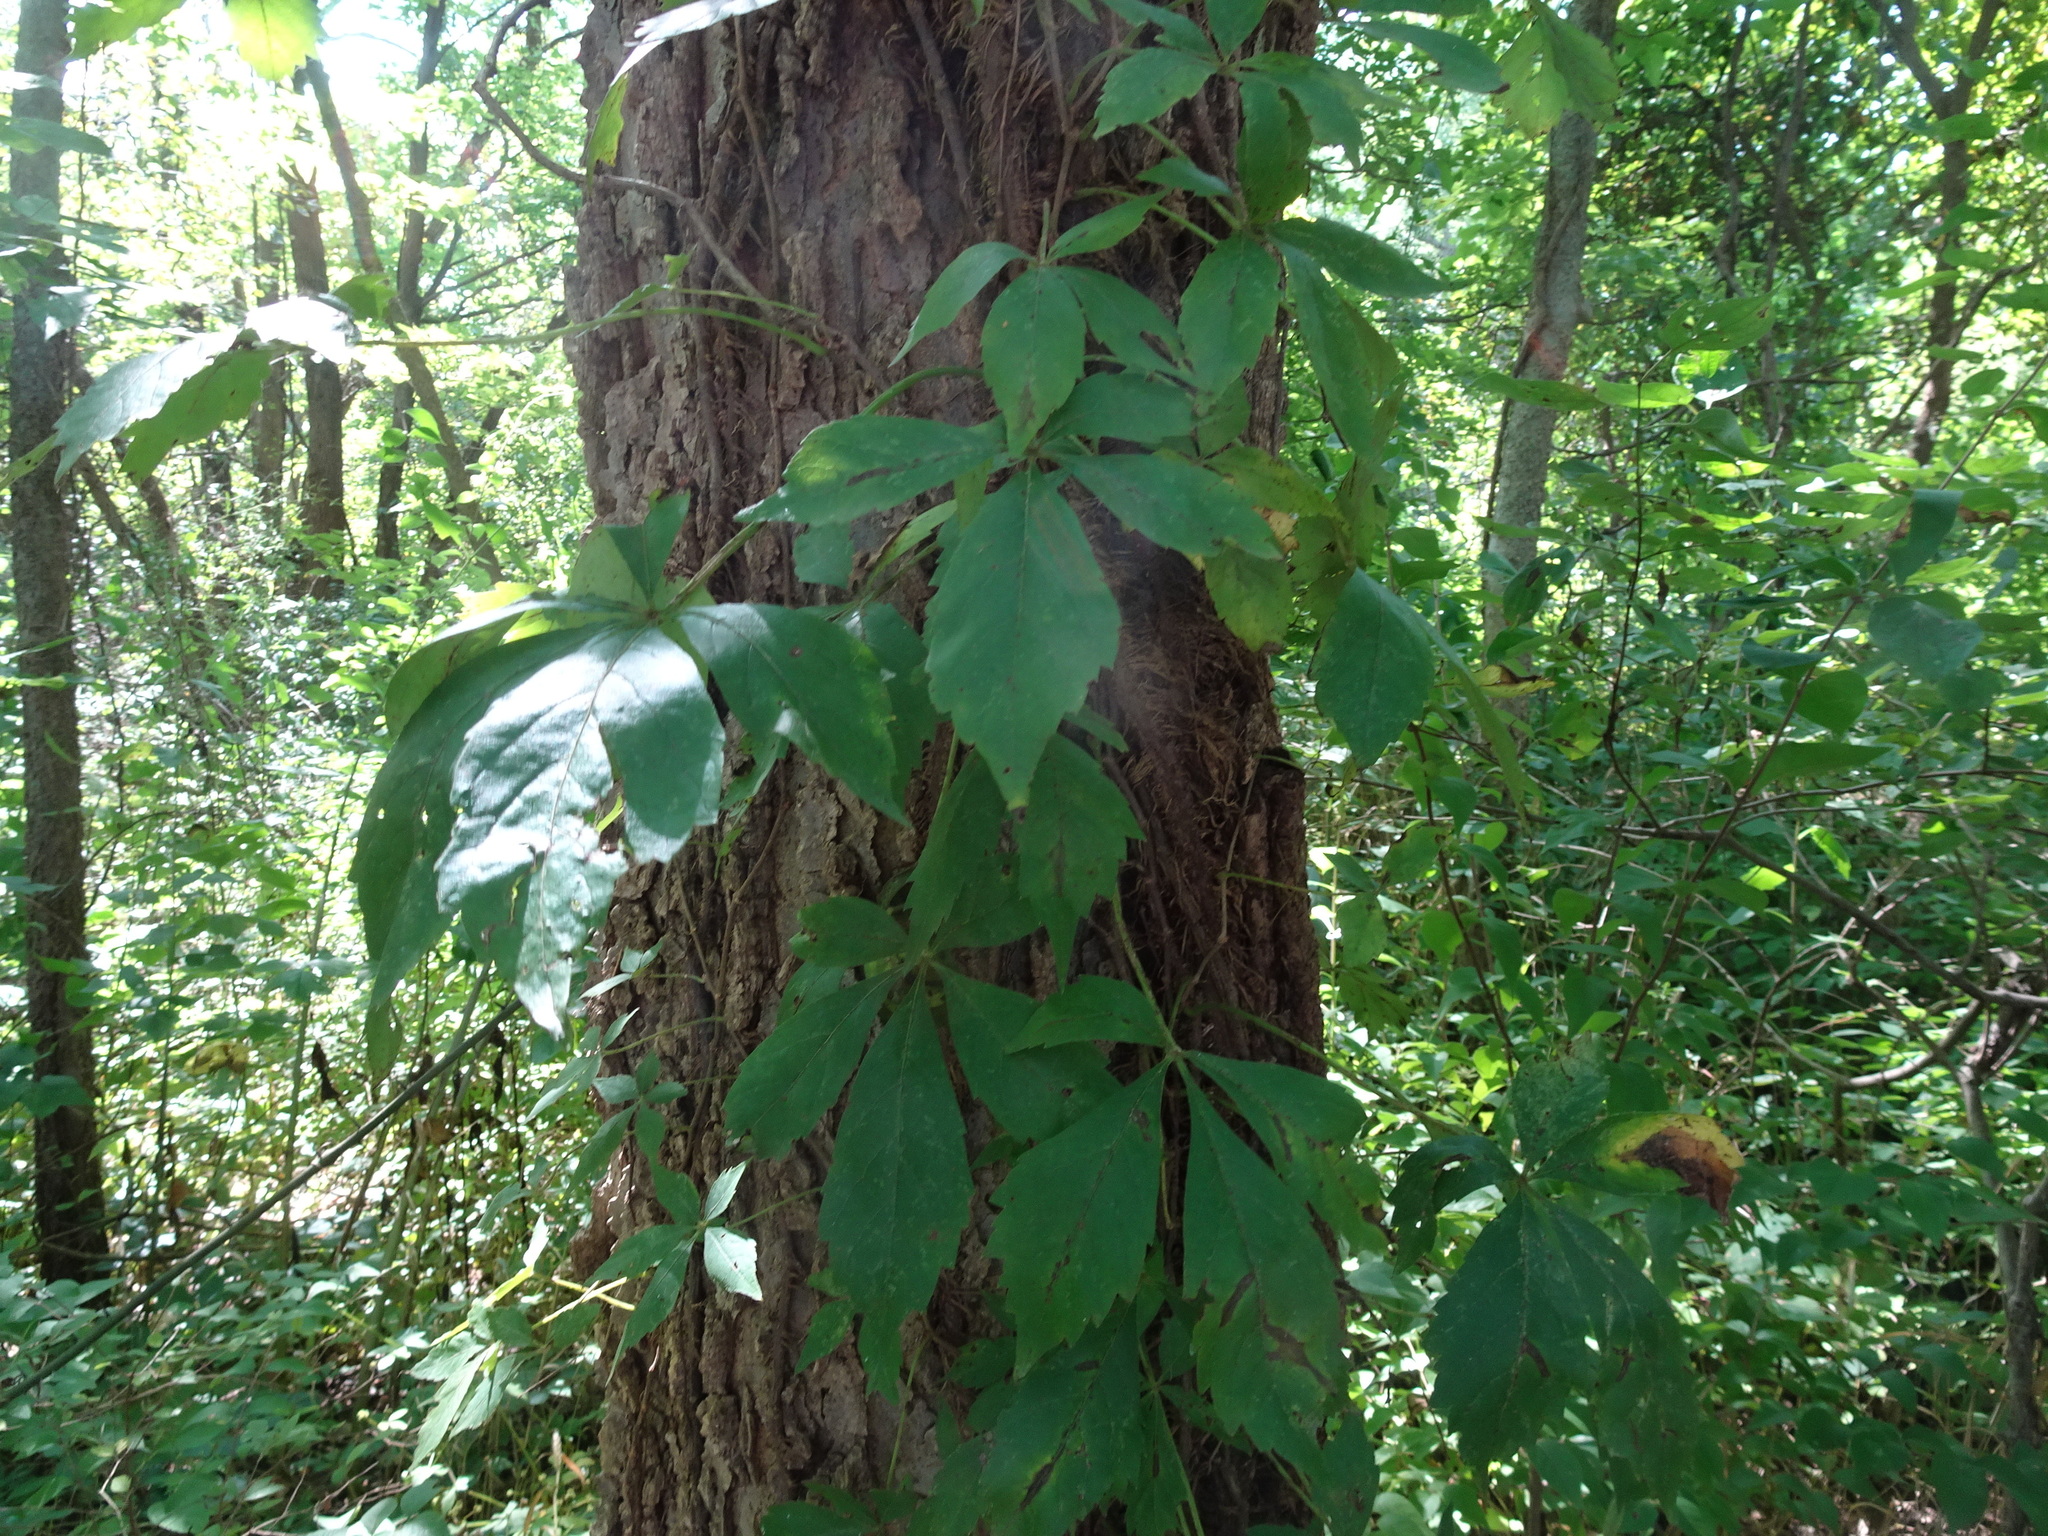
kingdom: Plantae
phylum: Tracheophyta
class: Magnoliopsida
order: Vitales
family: Vitaceae
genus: Parthenocissus
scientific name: Parthenocissus quinquefolia
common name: Virginia-creeper
